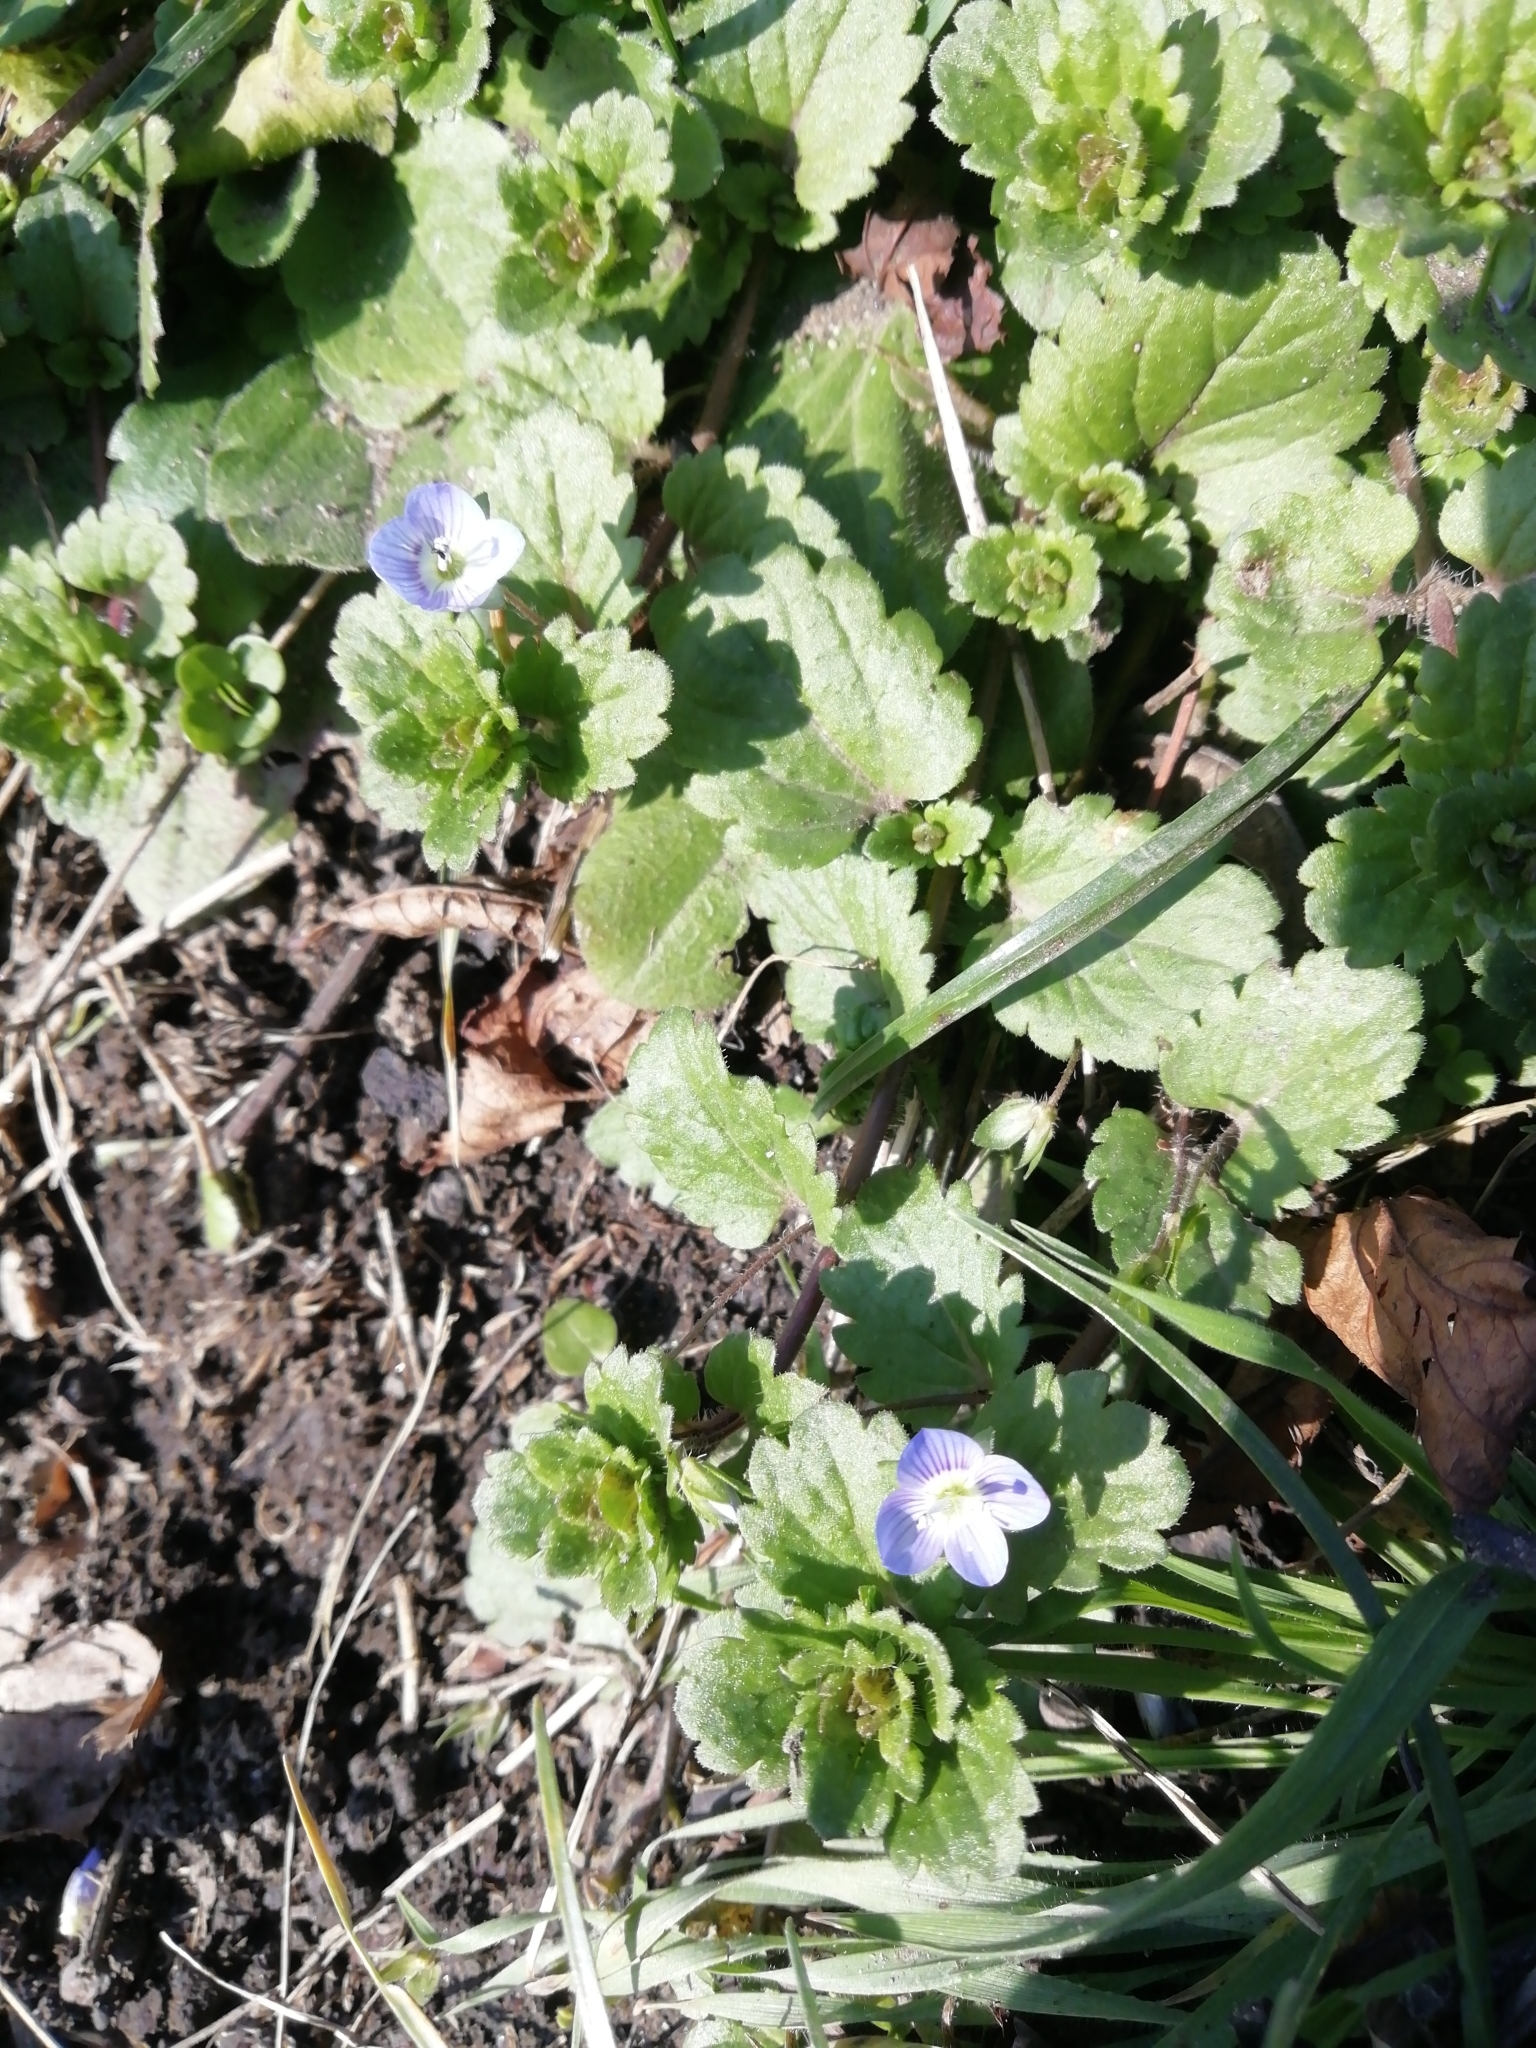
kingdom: Plantae
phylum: Tracheophyta
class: Magnoliopsida
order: Lamiales
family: Plantaginaceae
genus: Veronica
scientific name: Veronica persica
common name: Common field-speedwell
